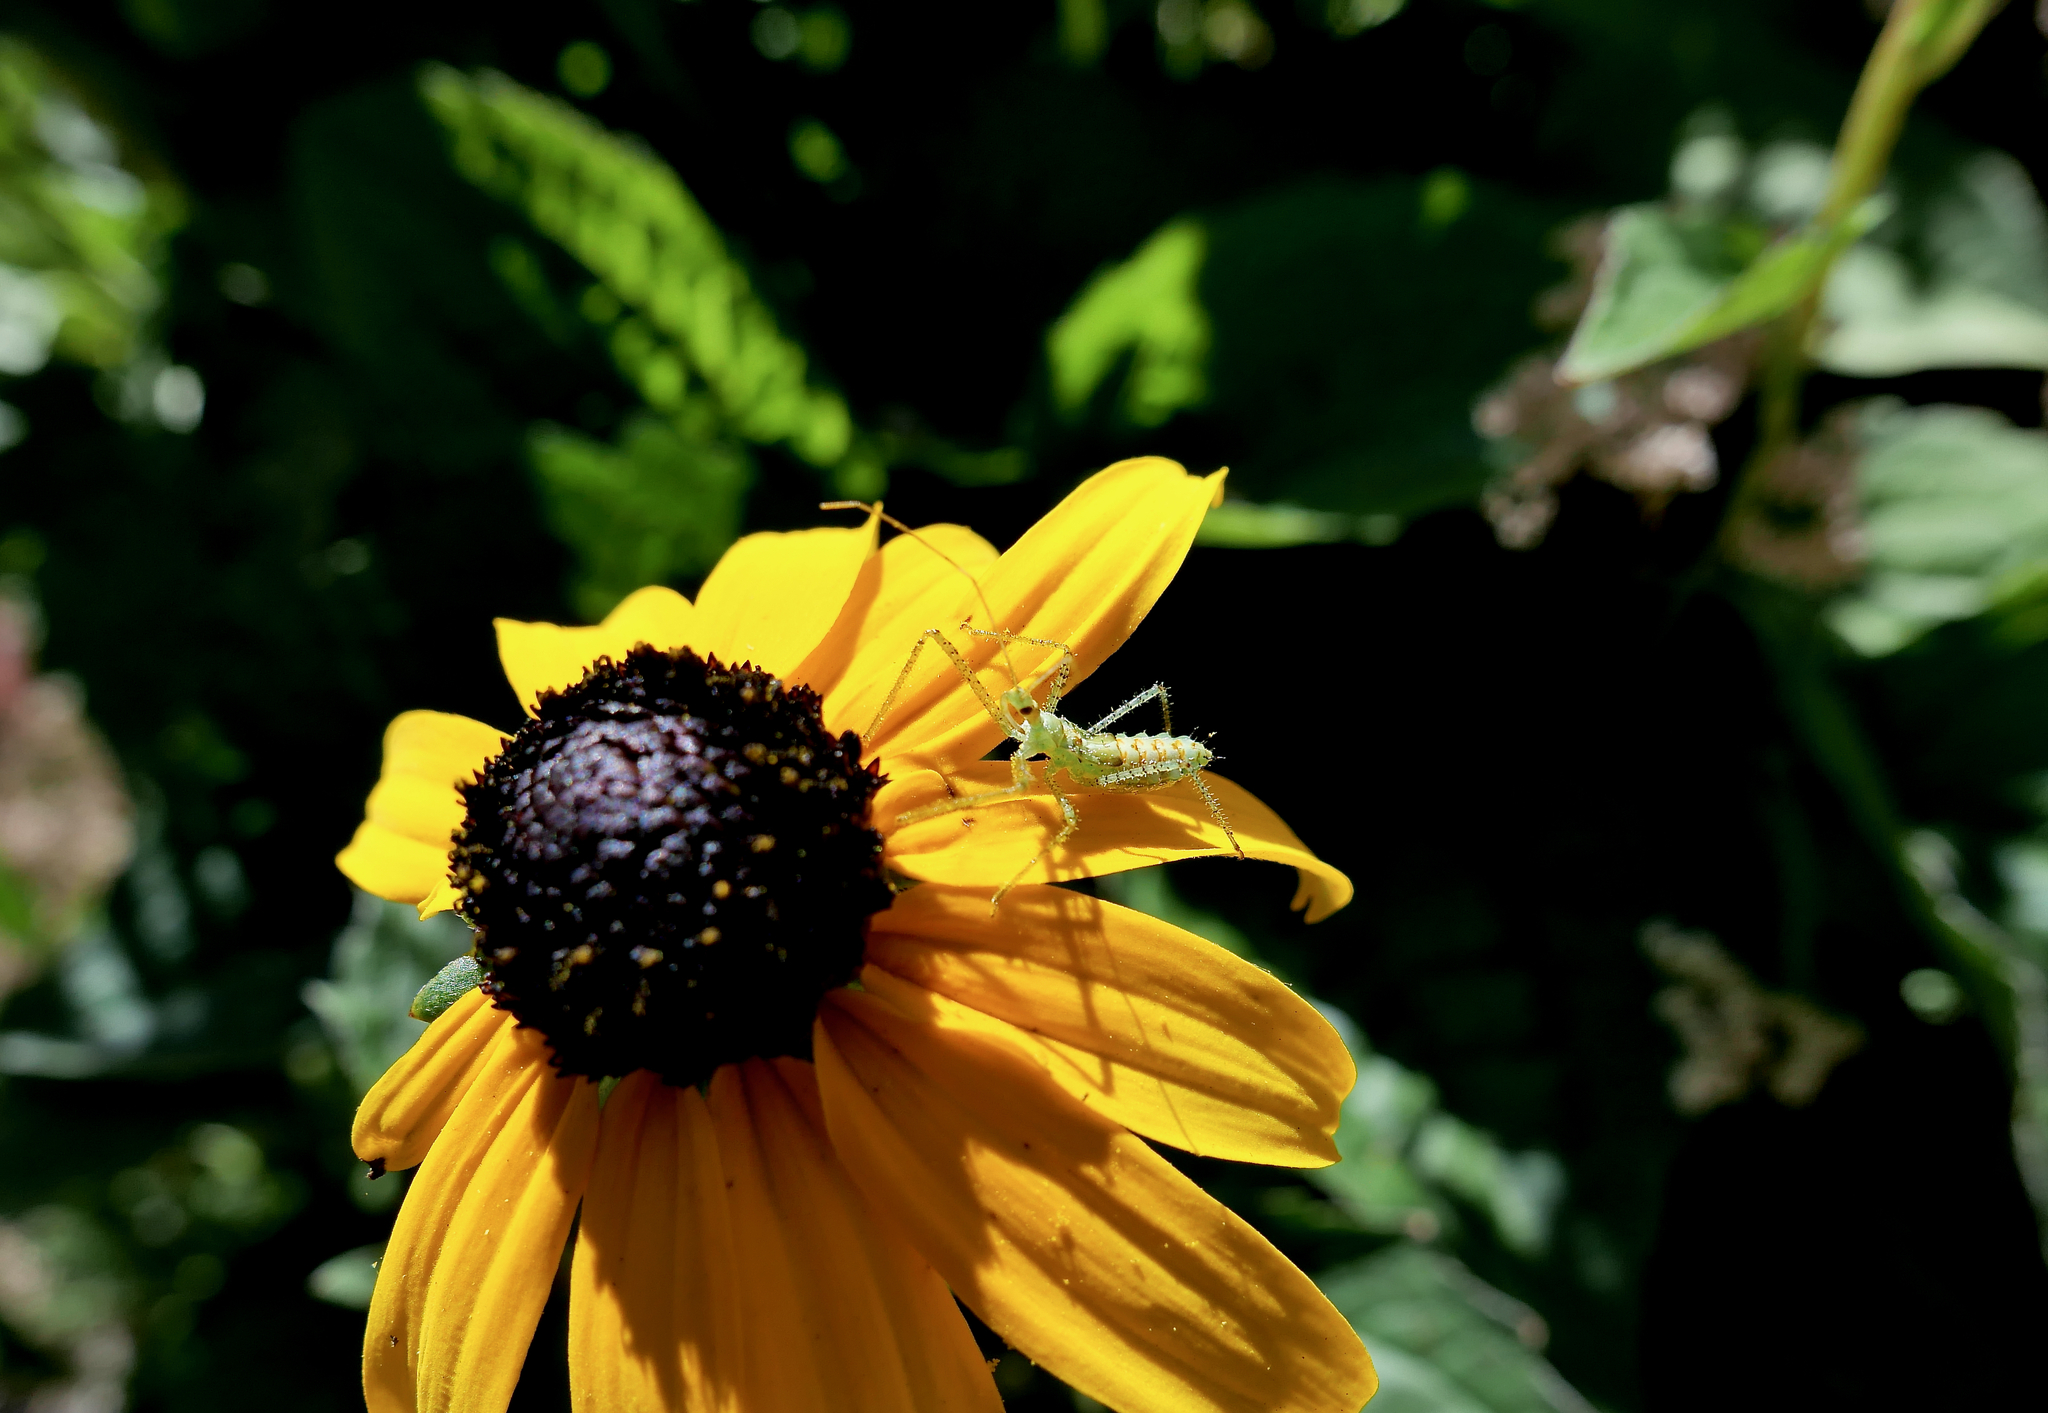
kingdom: Animalia
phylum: Arthropoda
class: Insecta
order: Hemiptera
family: Reduviidae
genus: Zelus
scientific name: Zelus renardii
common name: Assassin bug
